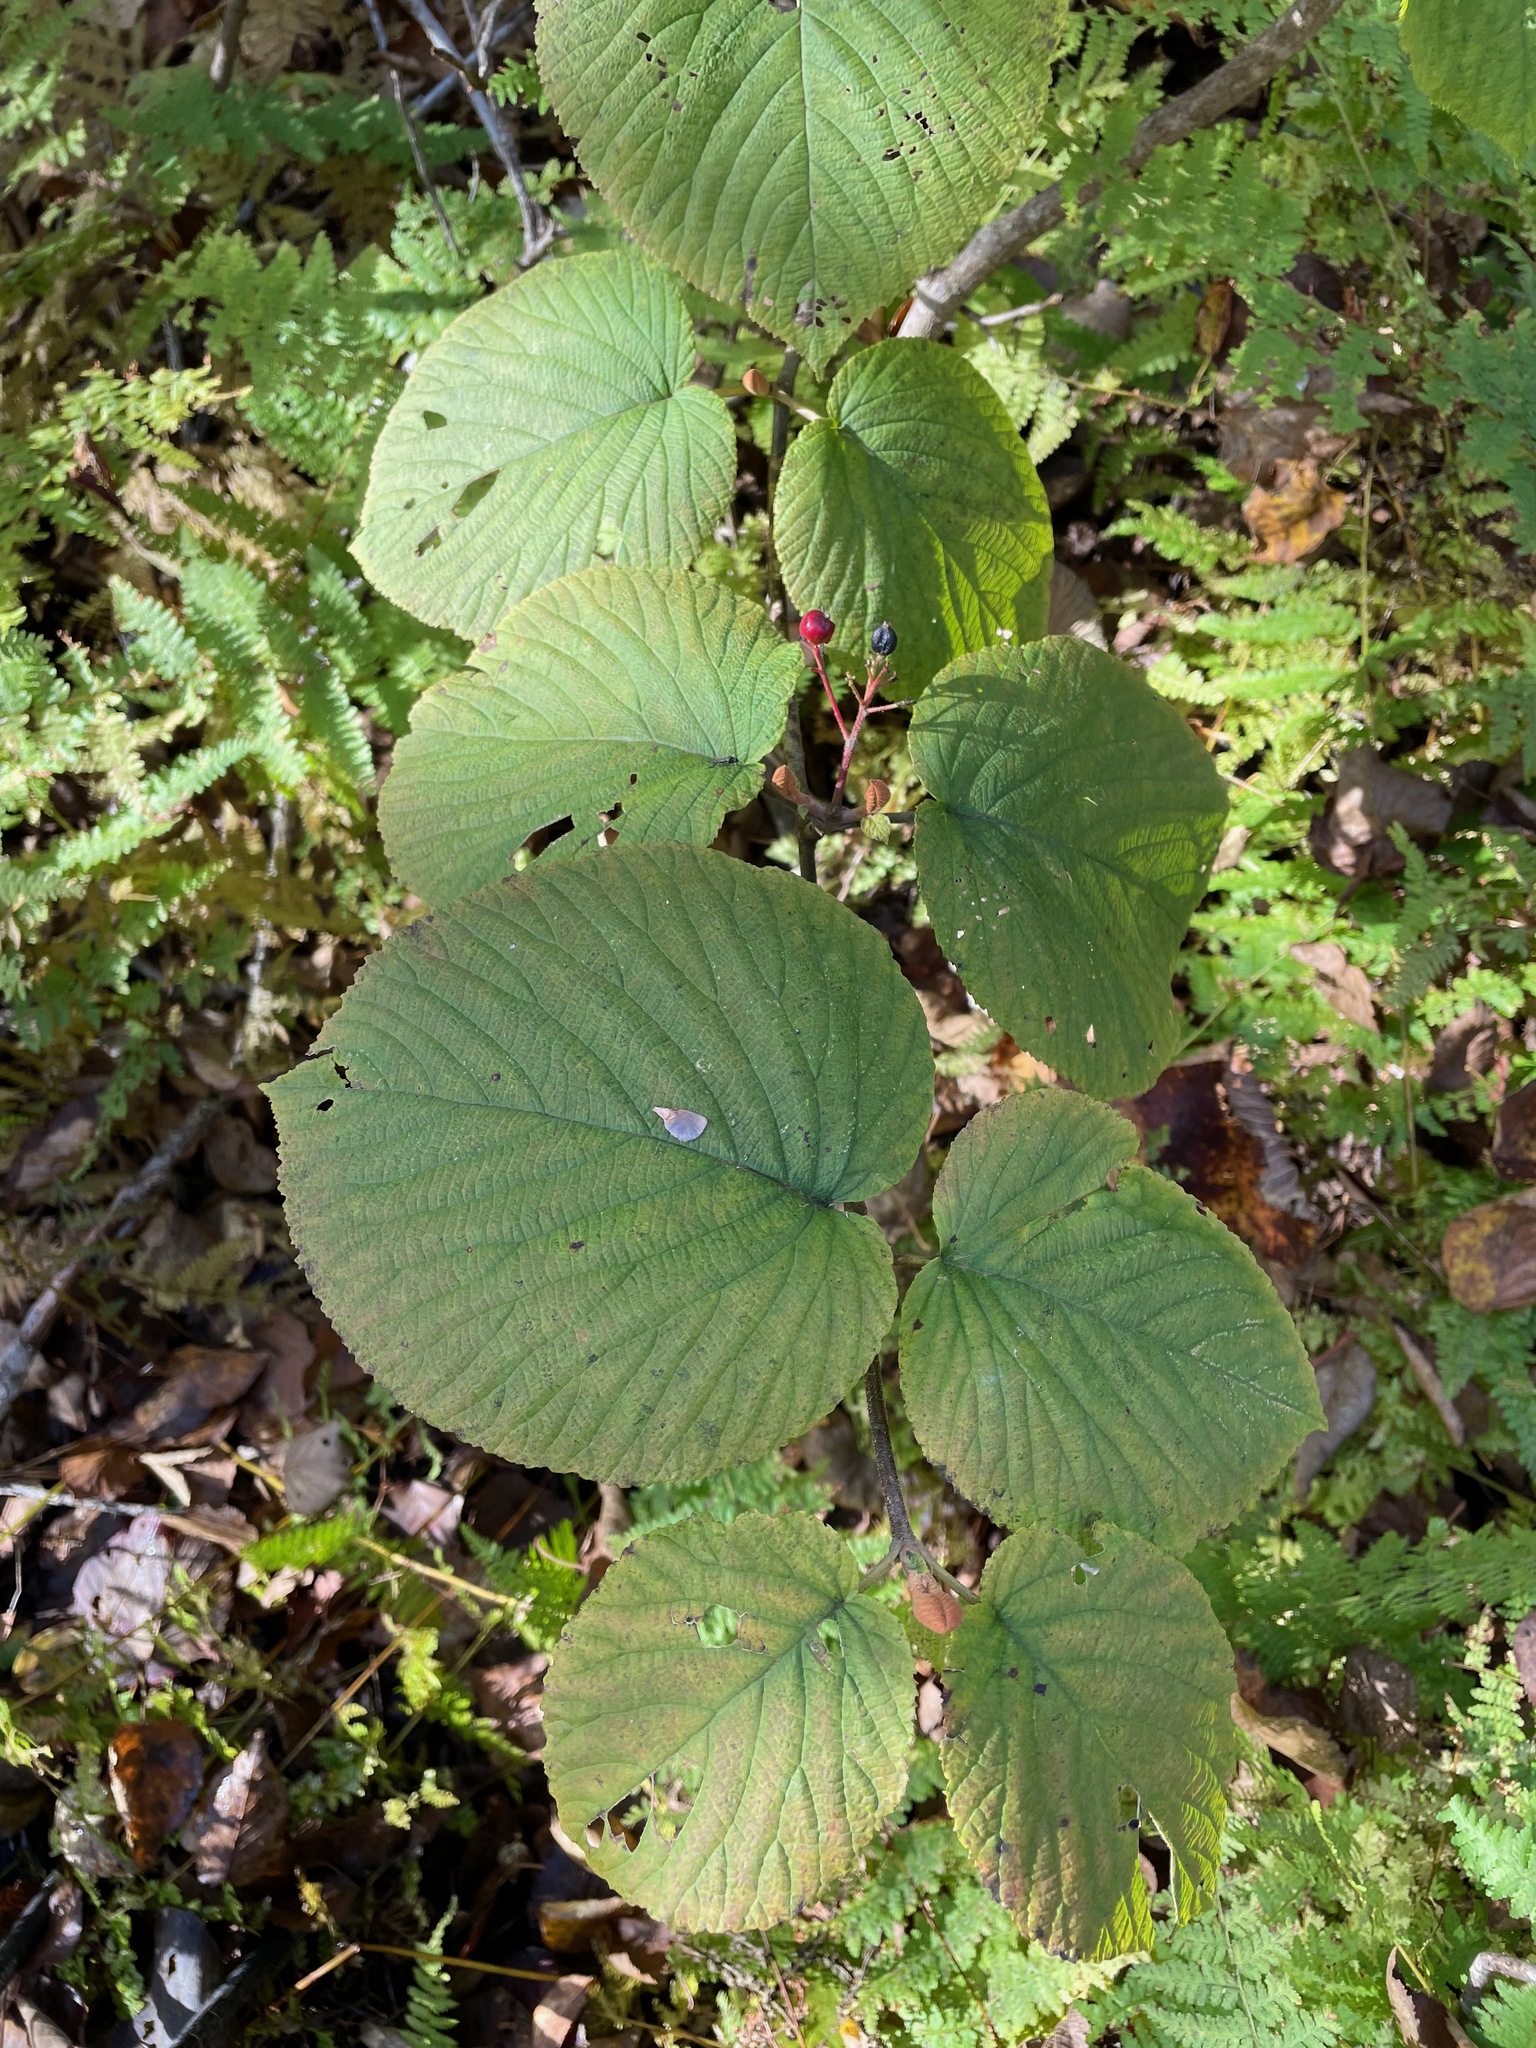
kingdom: Plantae
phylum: Tracheophyta
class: Magnoliopsida
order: Dipsacales
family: Viburnaceae
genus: Viburnum
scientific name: Viburnum lantanoides
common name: Hobblebush
